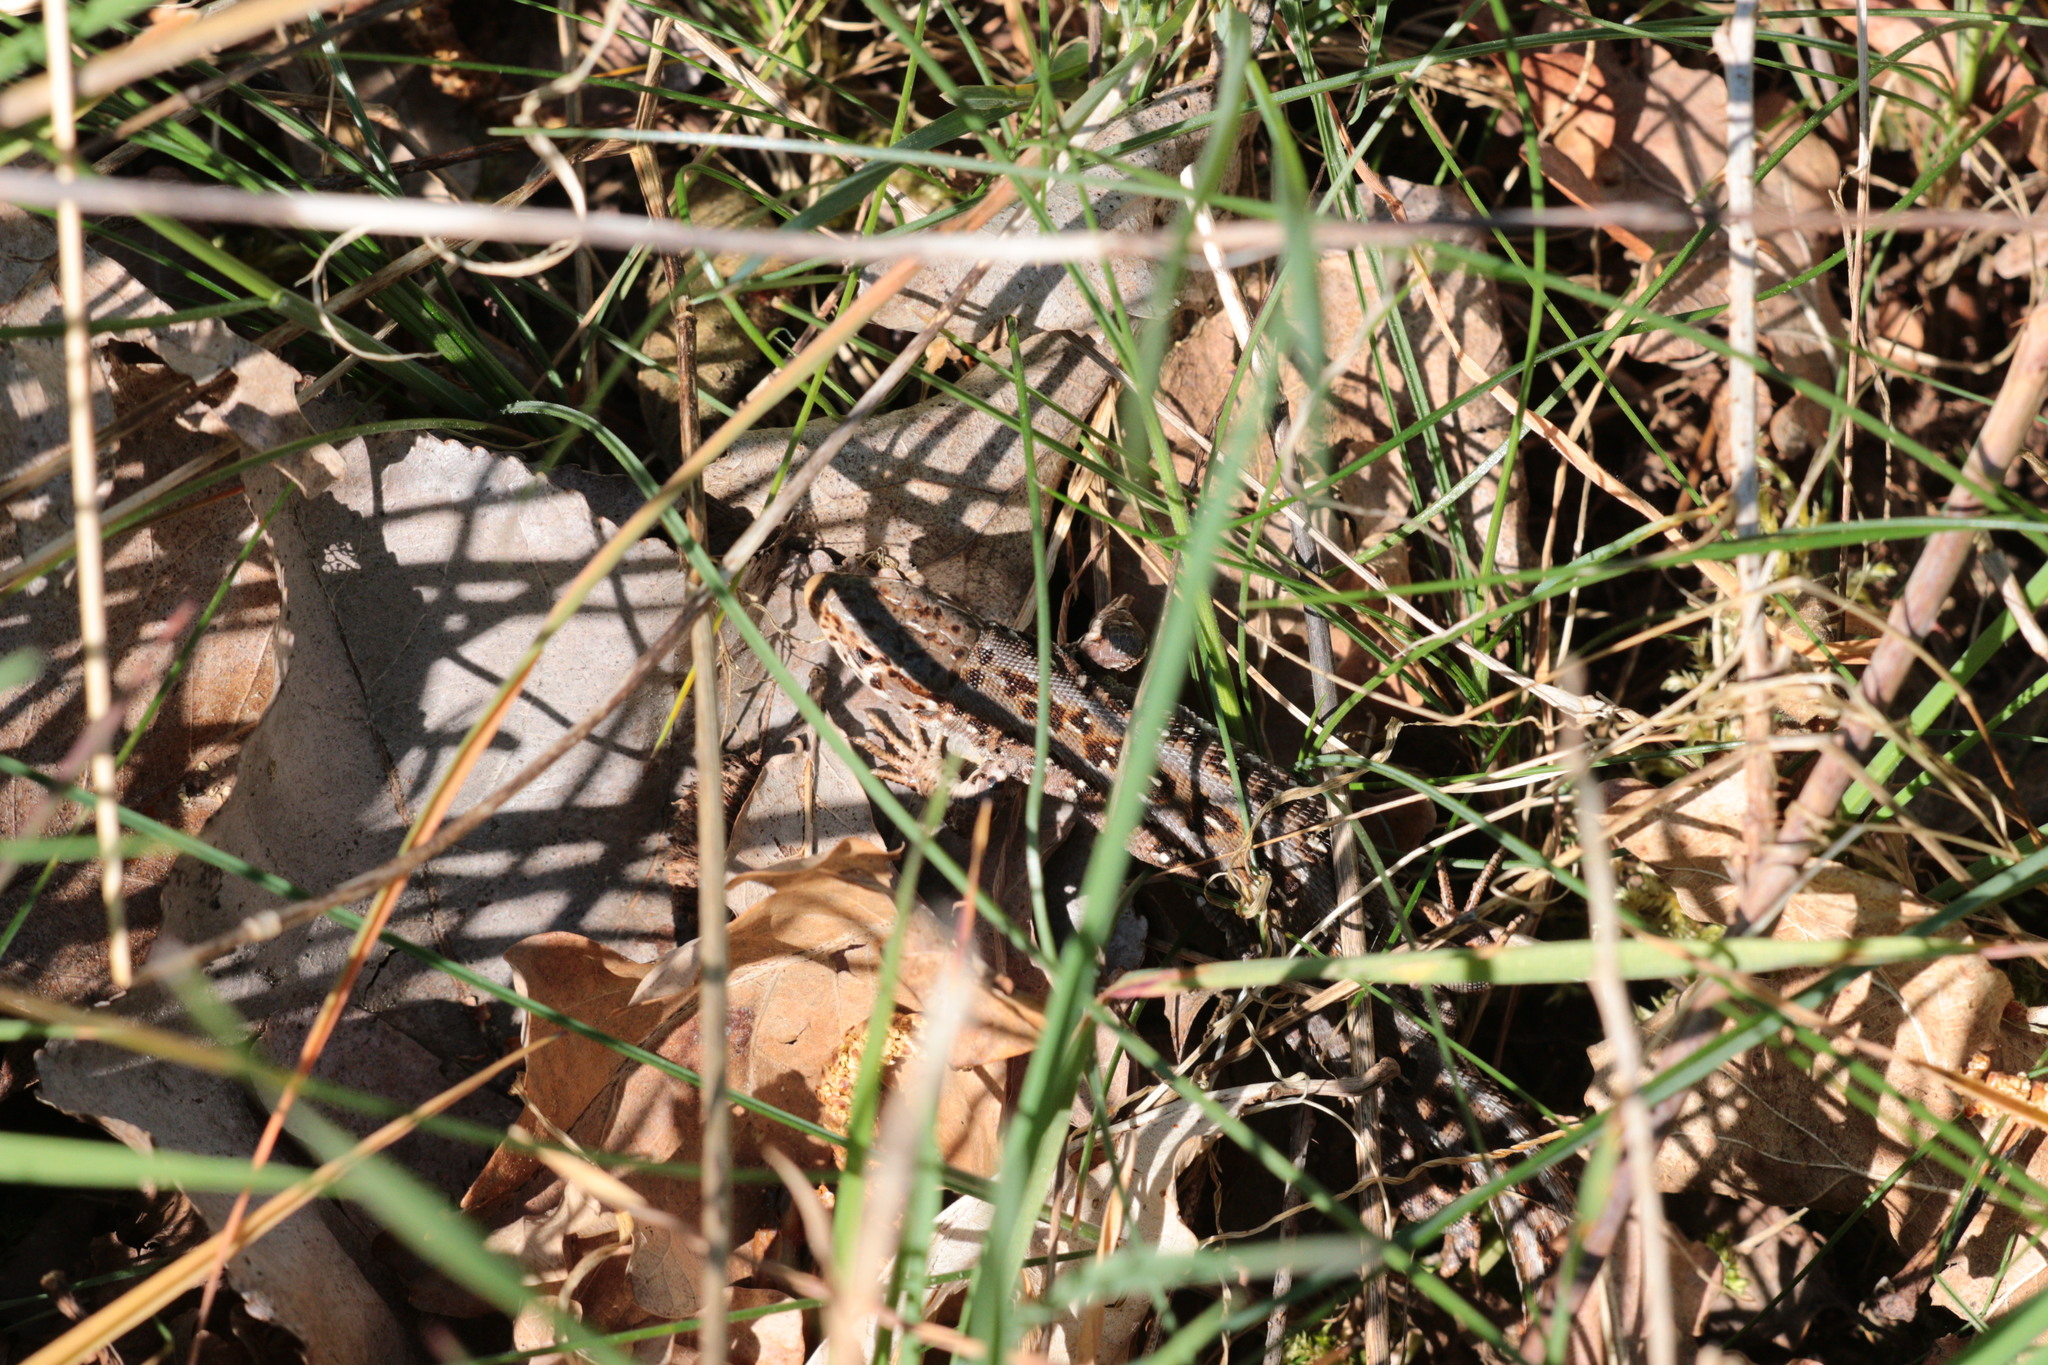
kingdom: Animalia
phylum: Chordata
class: Squamata
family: Lacertidae
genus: Lacerta
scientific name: Lacerta agilis
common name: Sand lizard
